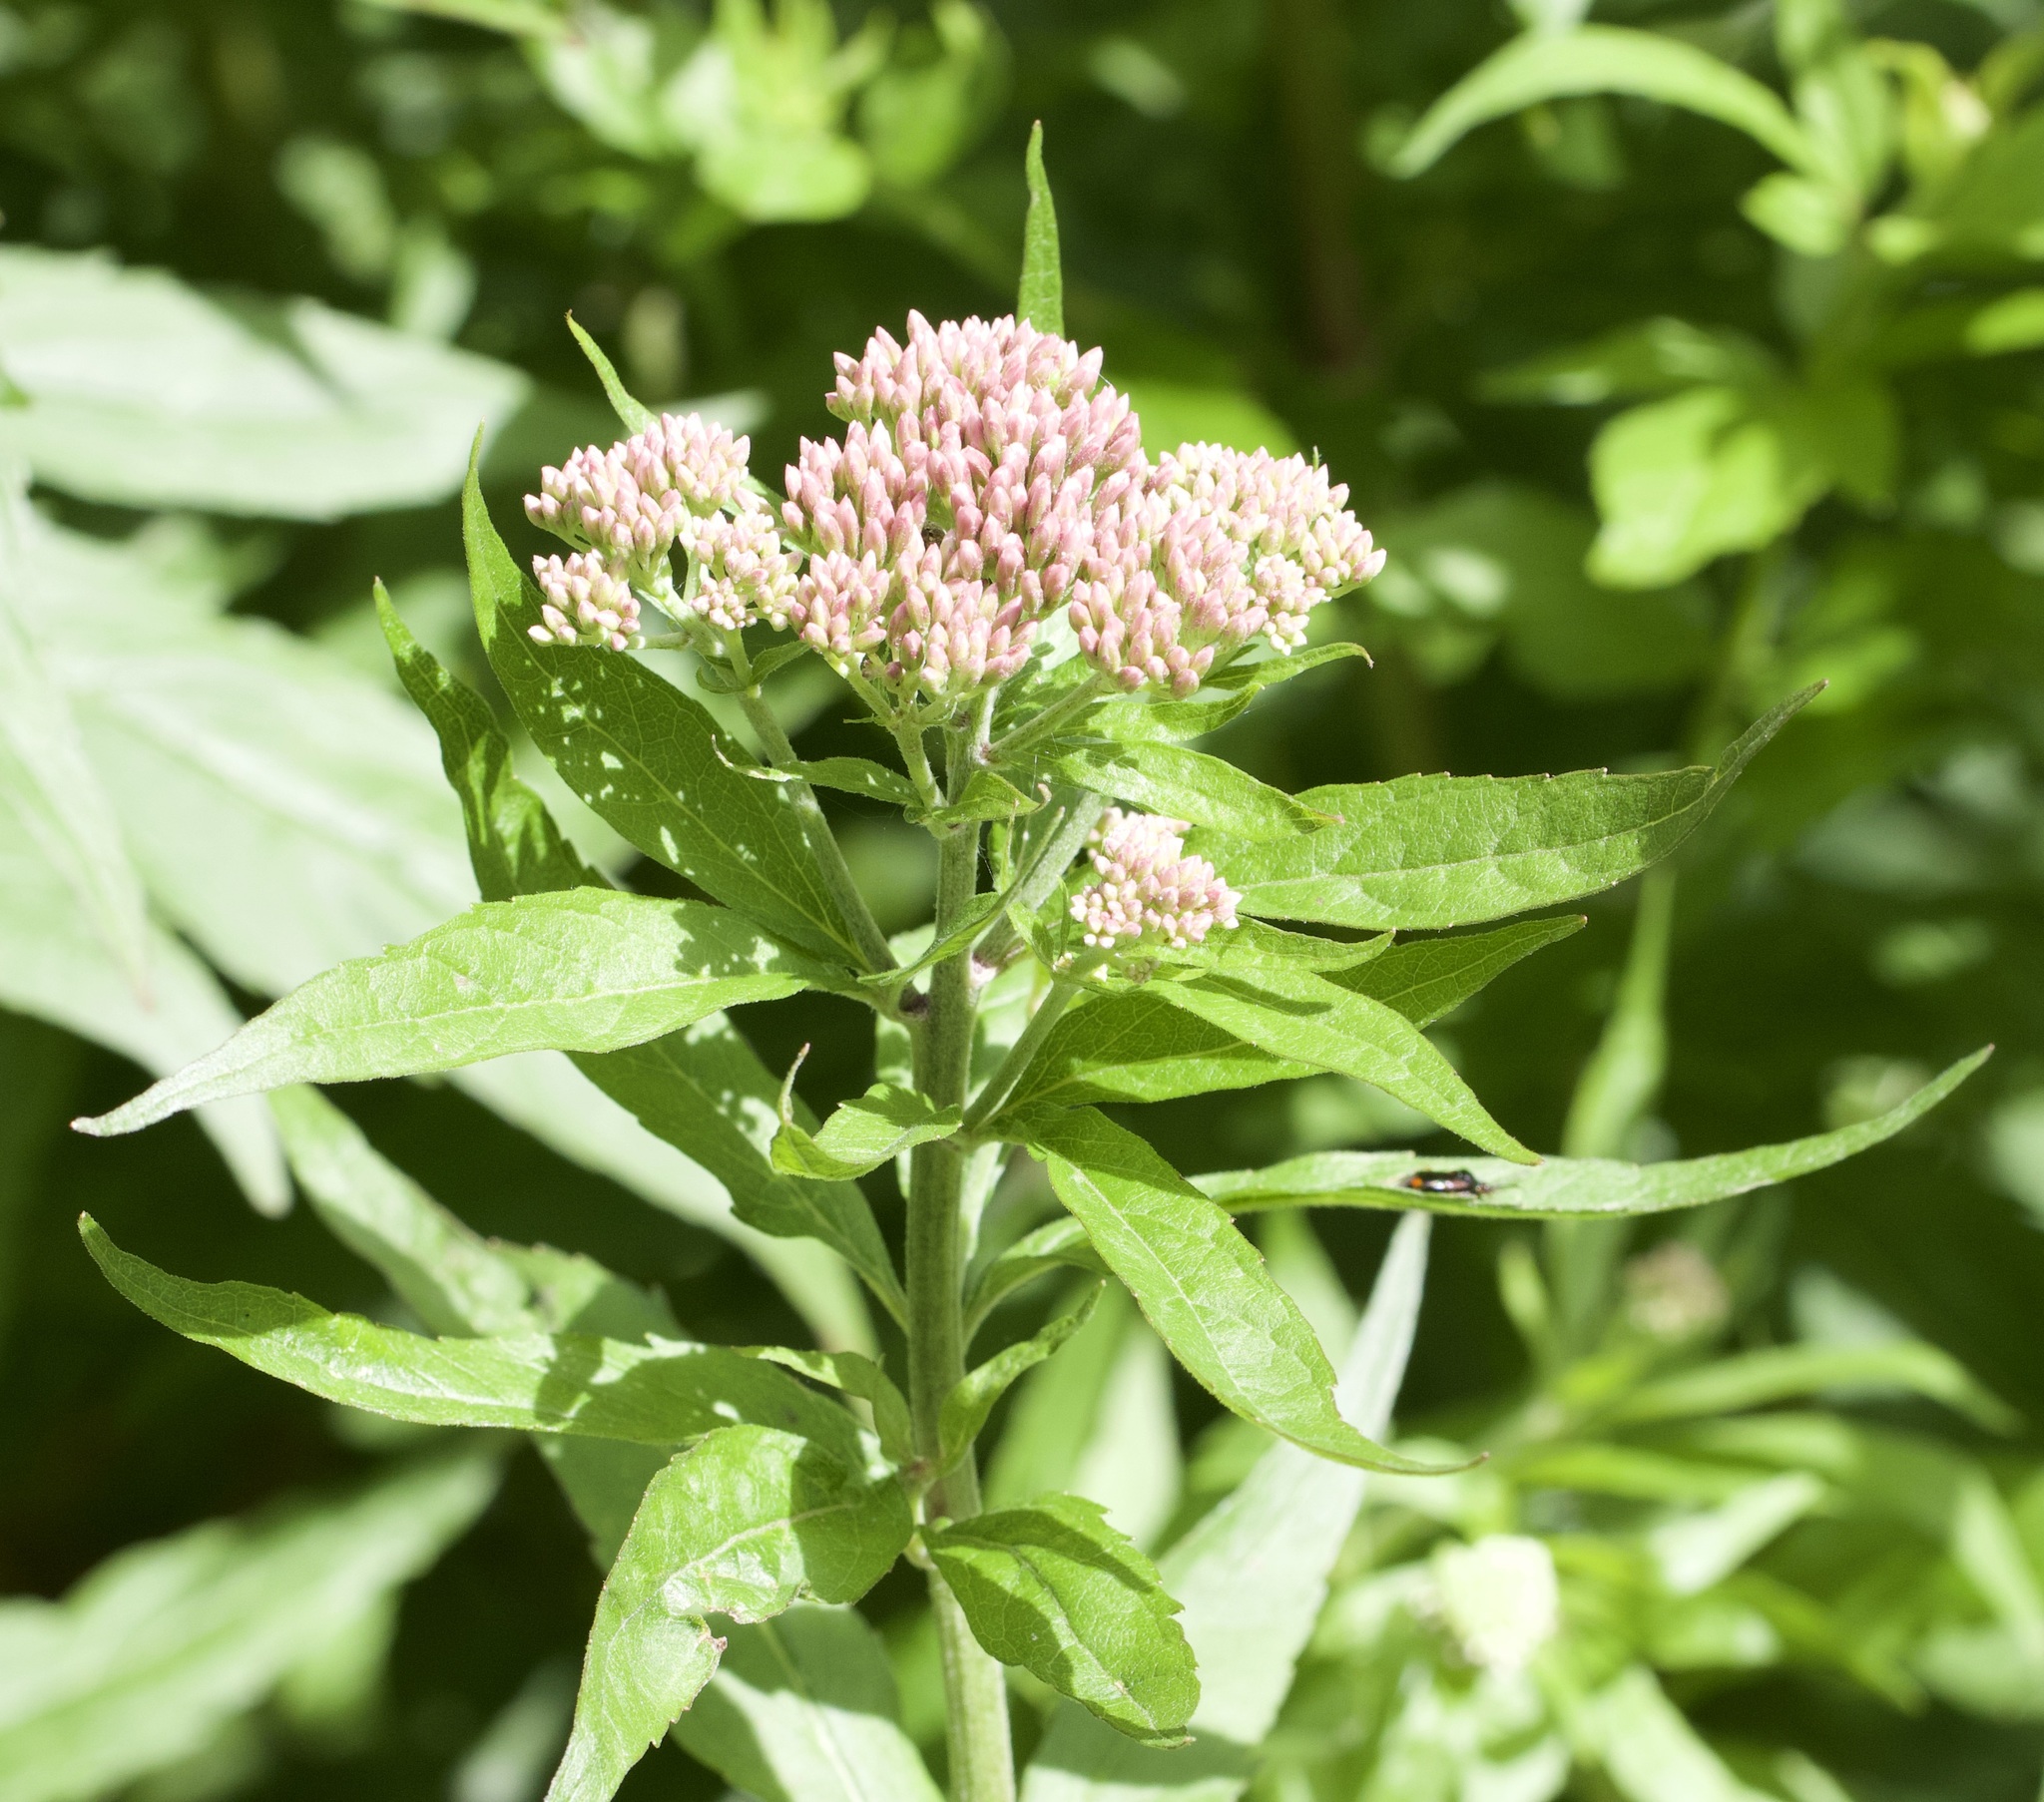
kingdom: Plantae
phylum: Tracheophyta
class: Magnoliopsida
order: Asterales
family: Asteraceae
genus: Eupatorium
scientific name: Eupatorium cannabinum
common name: Hemp-agrimony
